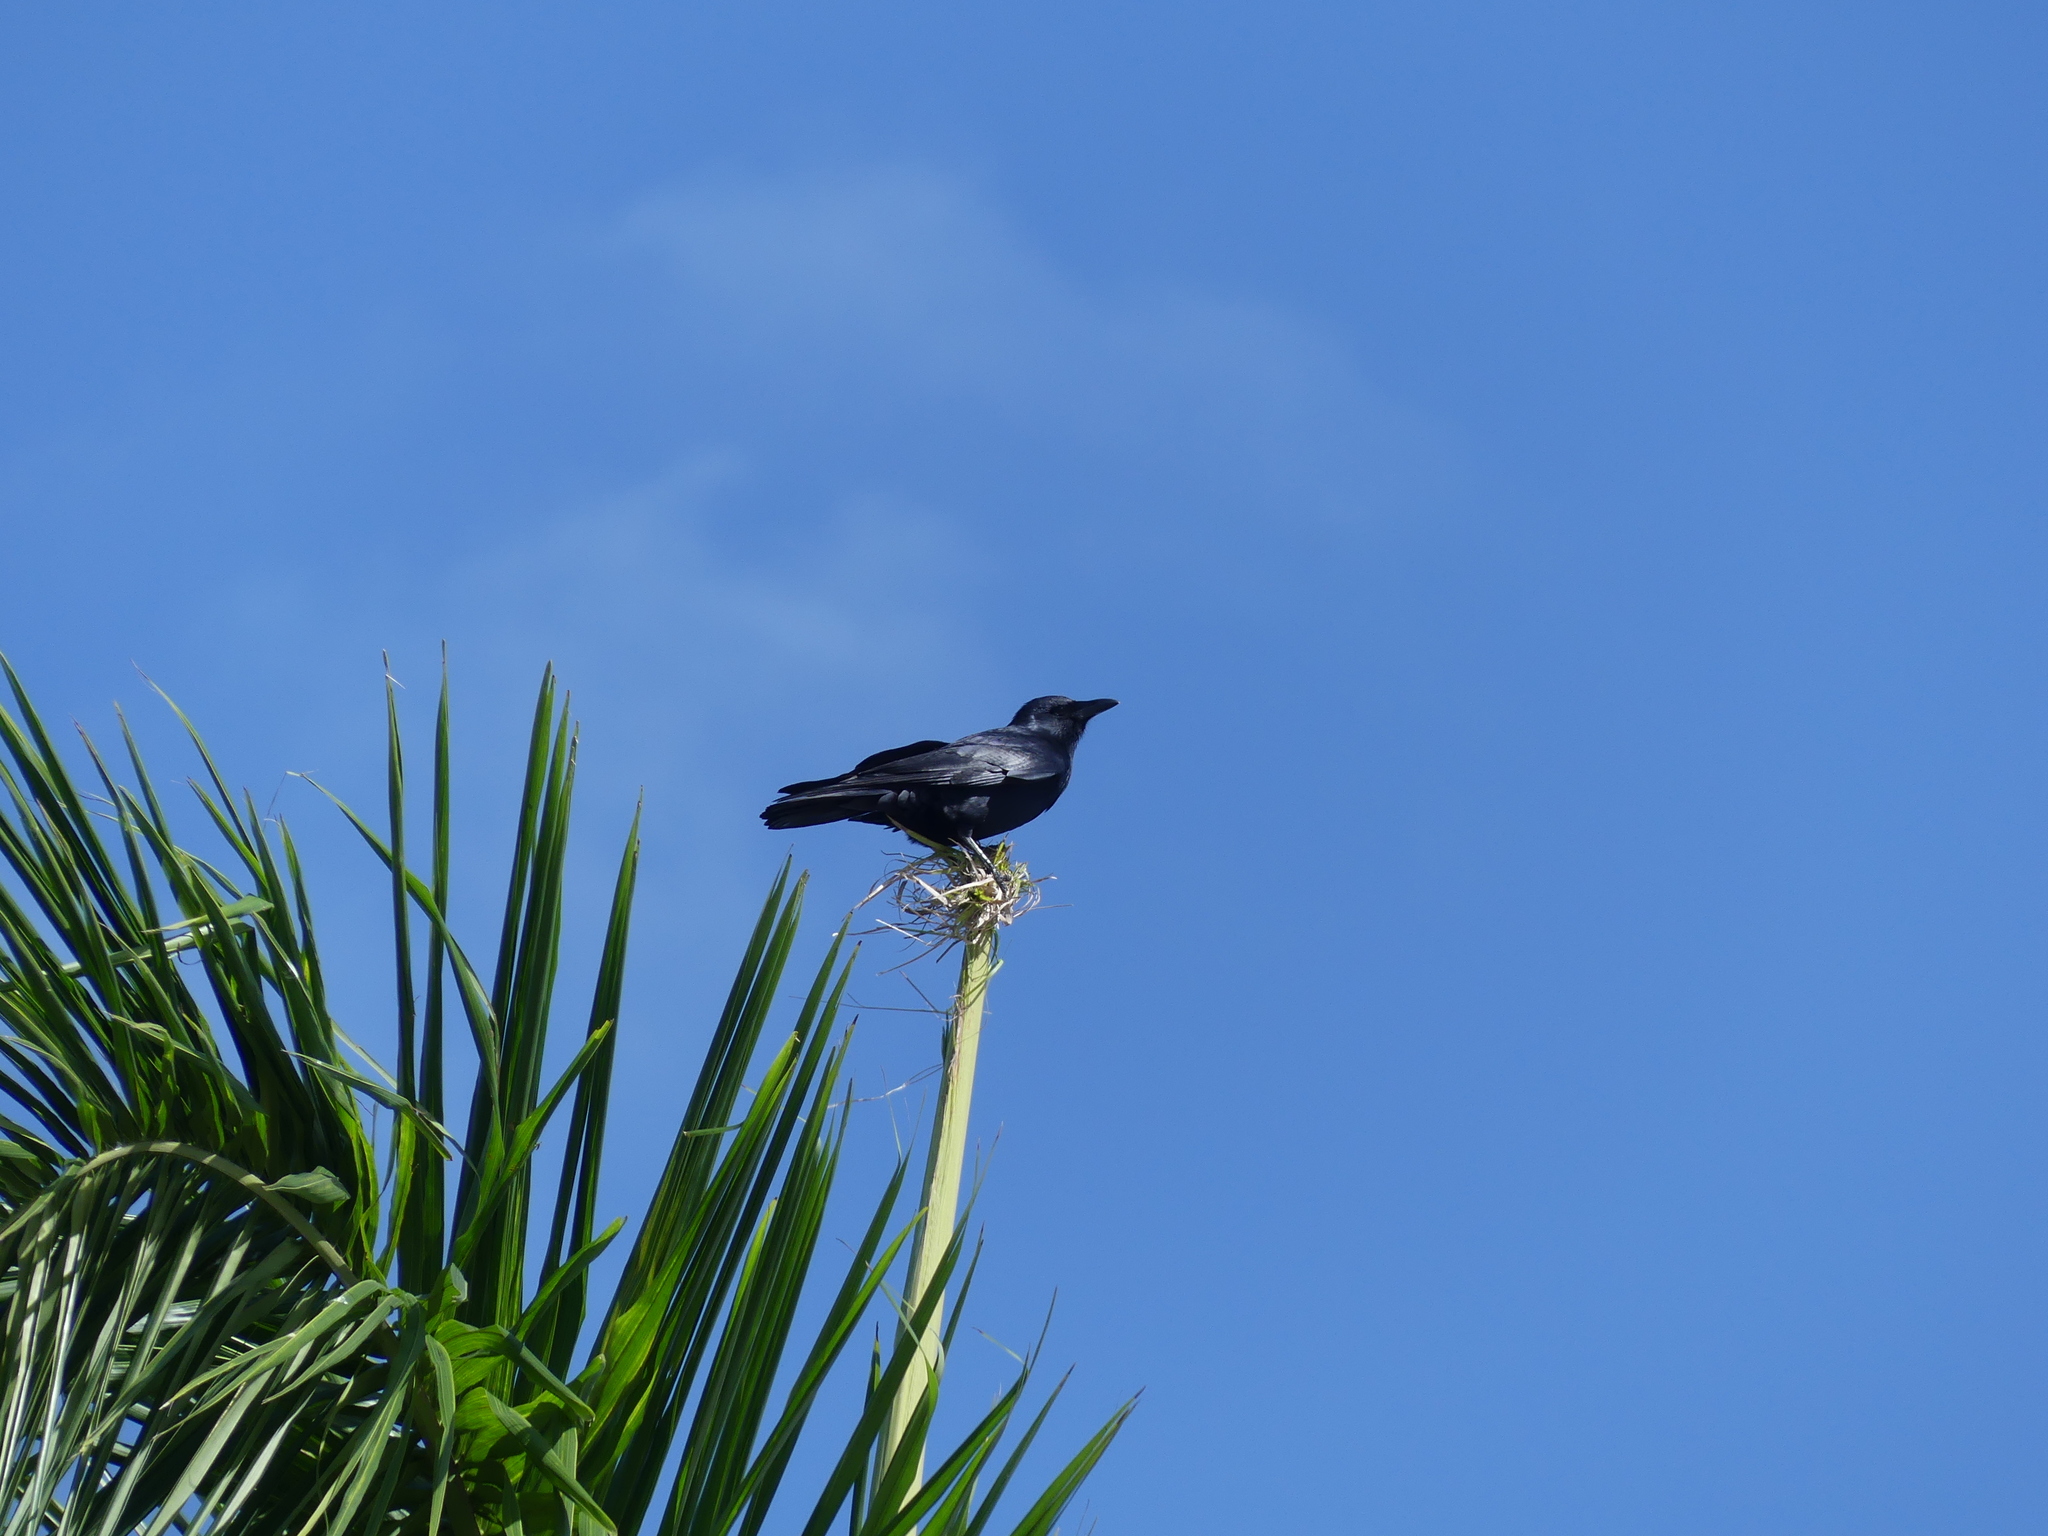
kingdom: Animalia
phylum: Chordata
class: Aves
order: Passeriformes
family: Corvidae
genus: Corvus
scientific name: Corvus ossifragus
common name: Fish crow
